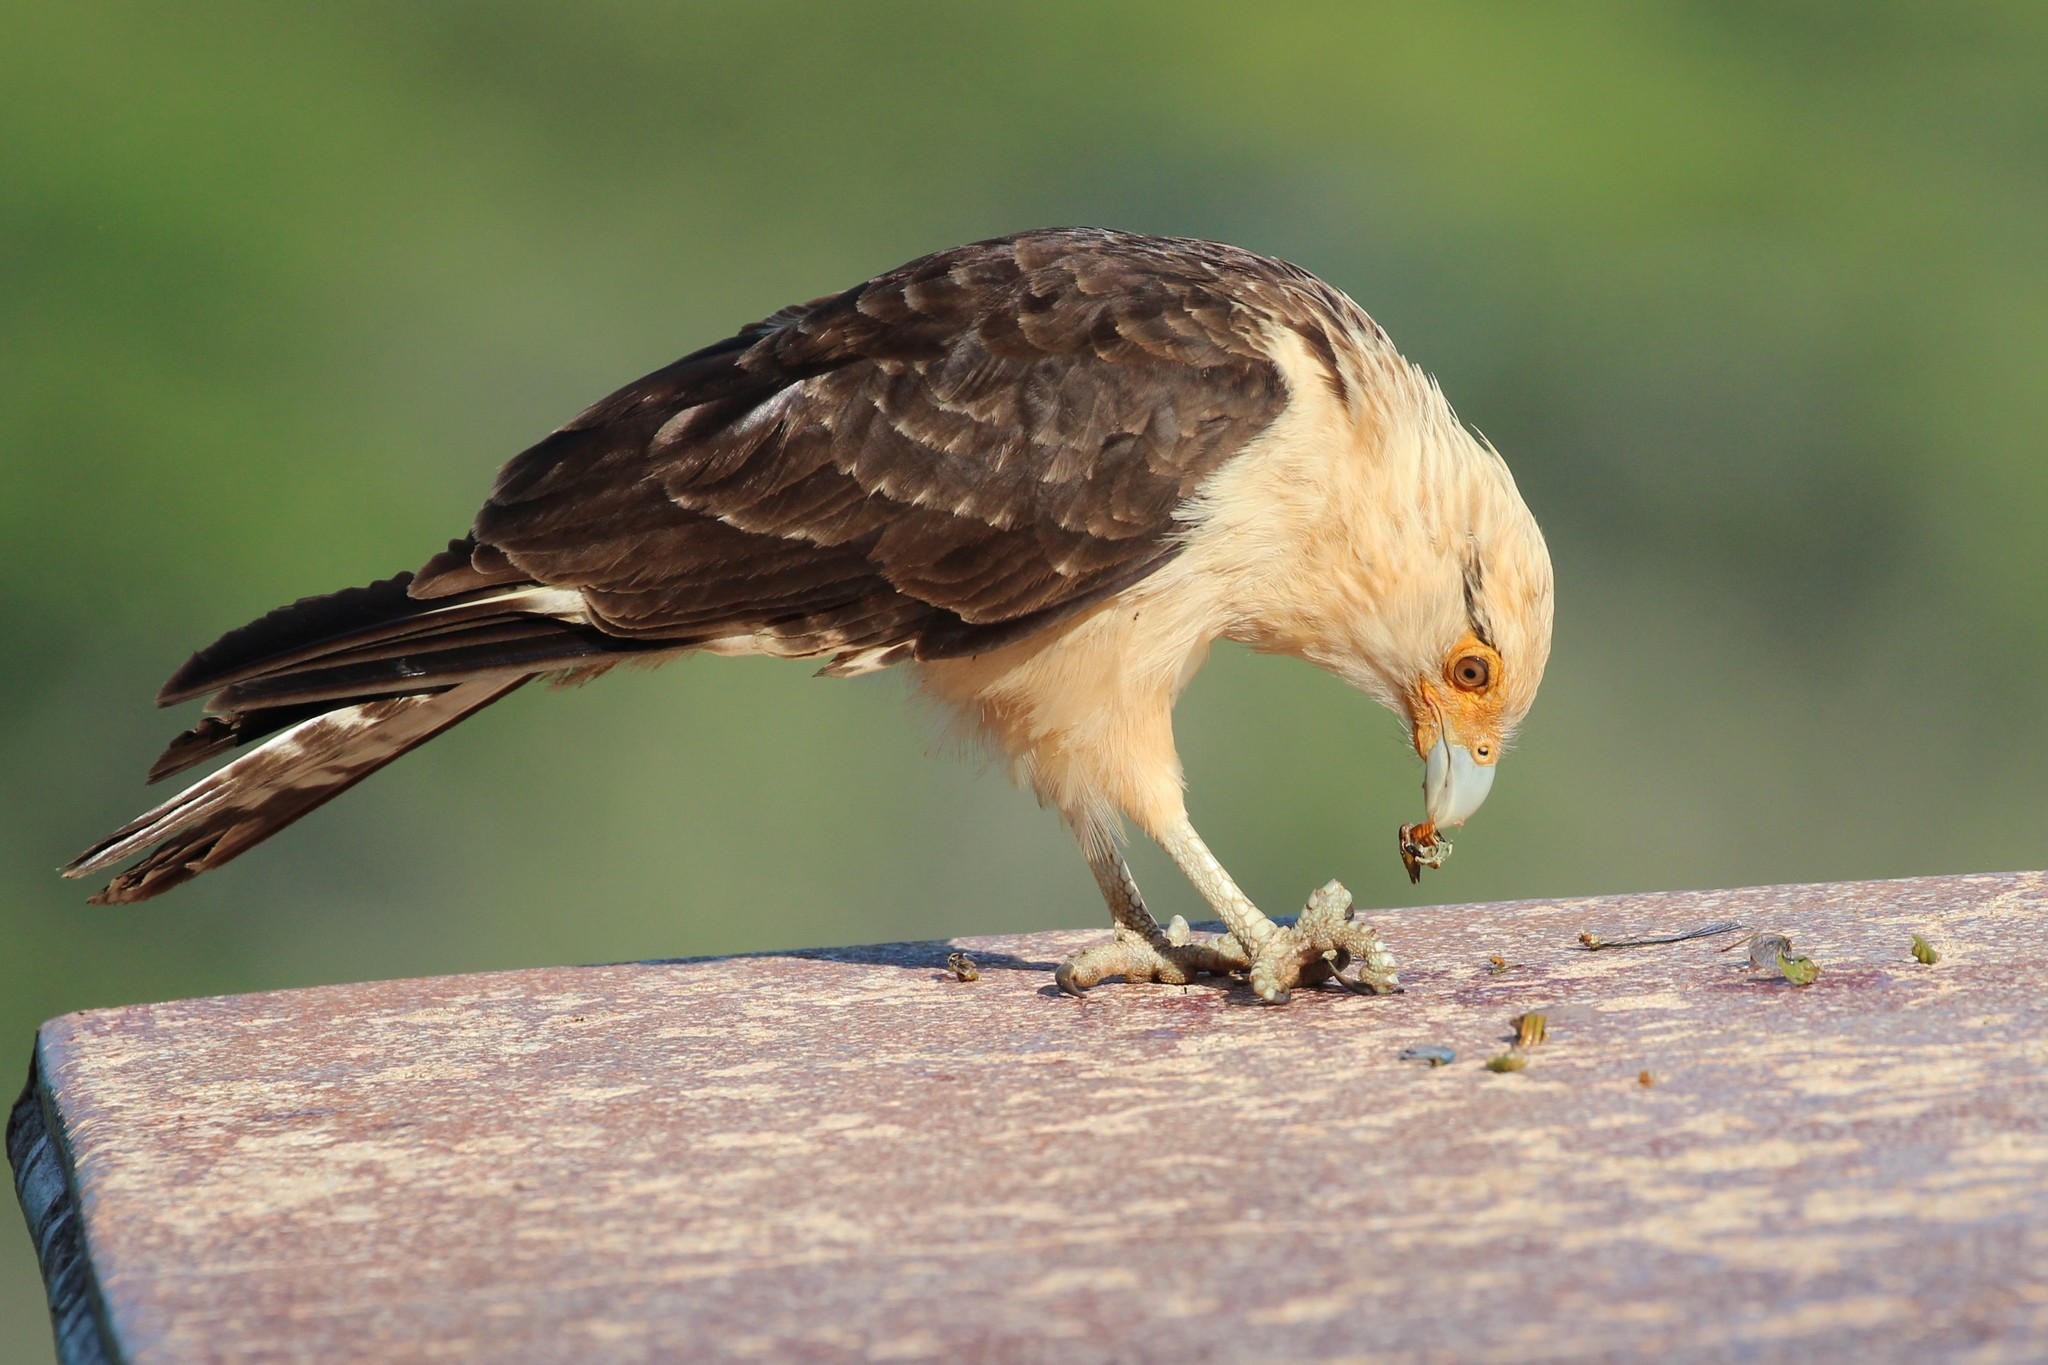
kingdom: Animalia
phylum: Chordata
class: Aves
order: Falconiformes
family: Falconidae
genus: Daptrius
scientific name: Daptrius
